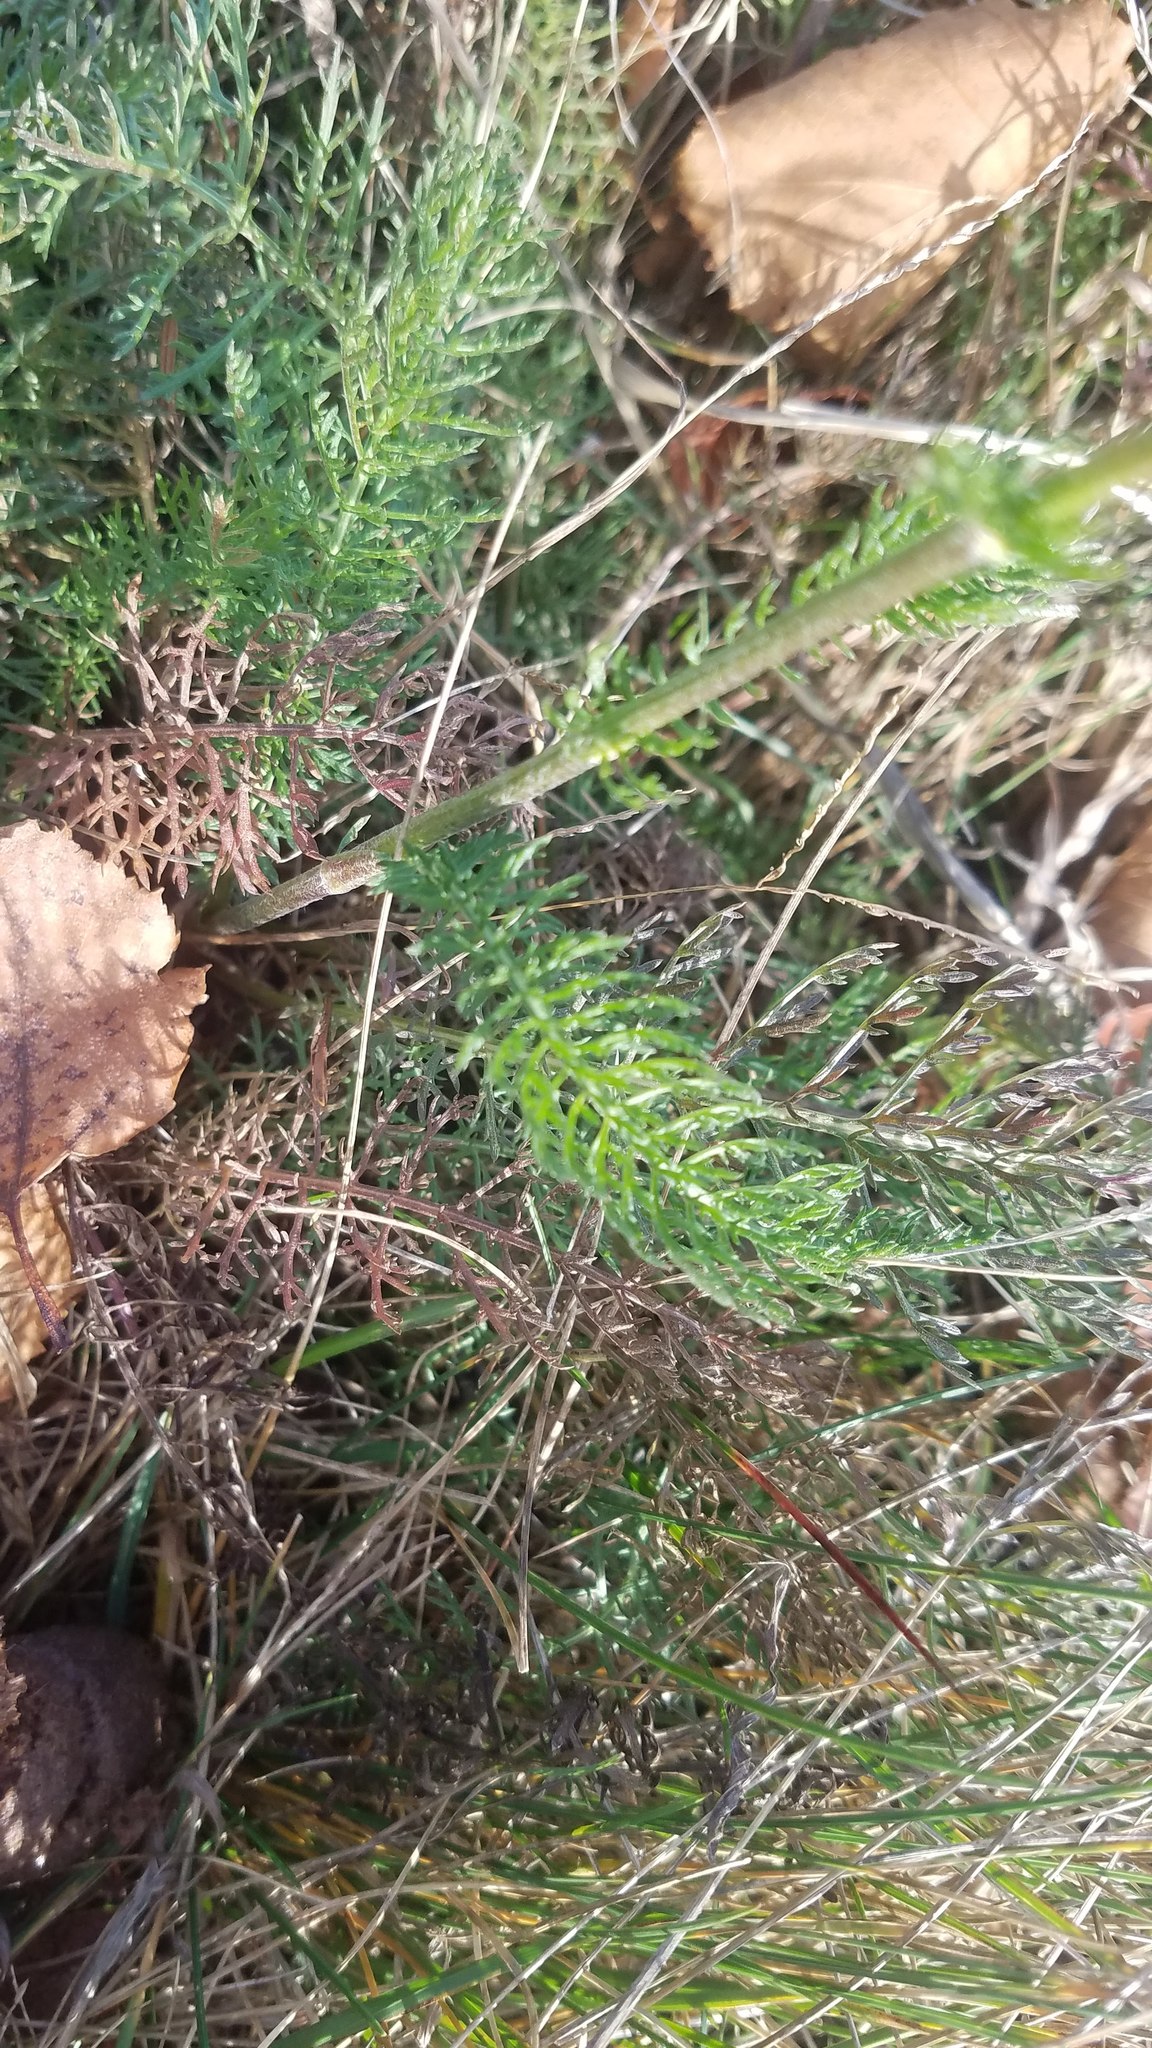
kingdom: Plantae
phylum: Tracheophyta
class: Magnoliopsida
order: Asterales
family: Asteraceae
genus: Achillea
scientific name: Achillea millefolium
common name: Yarrow
